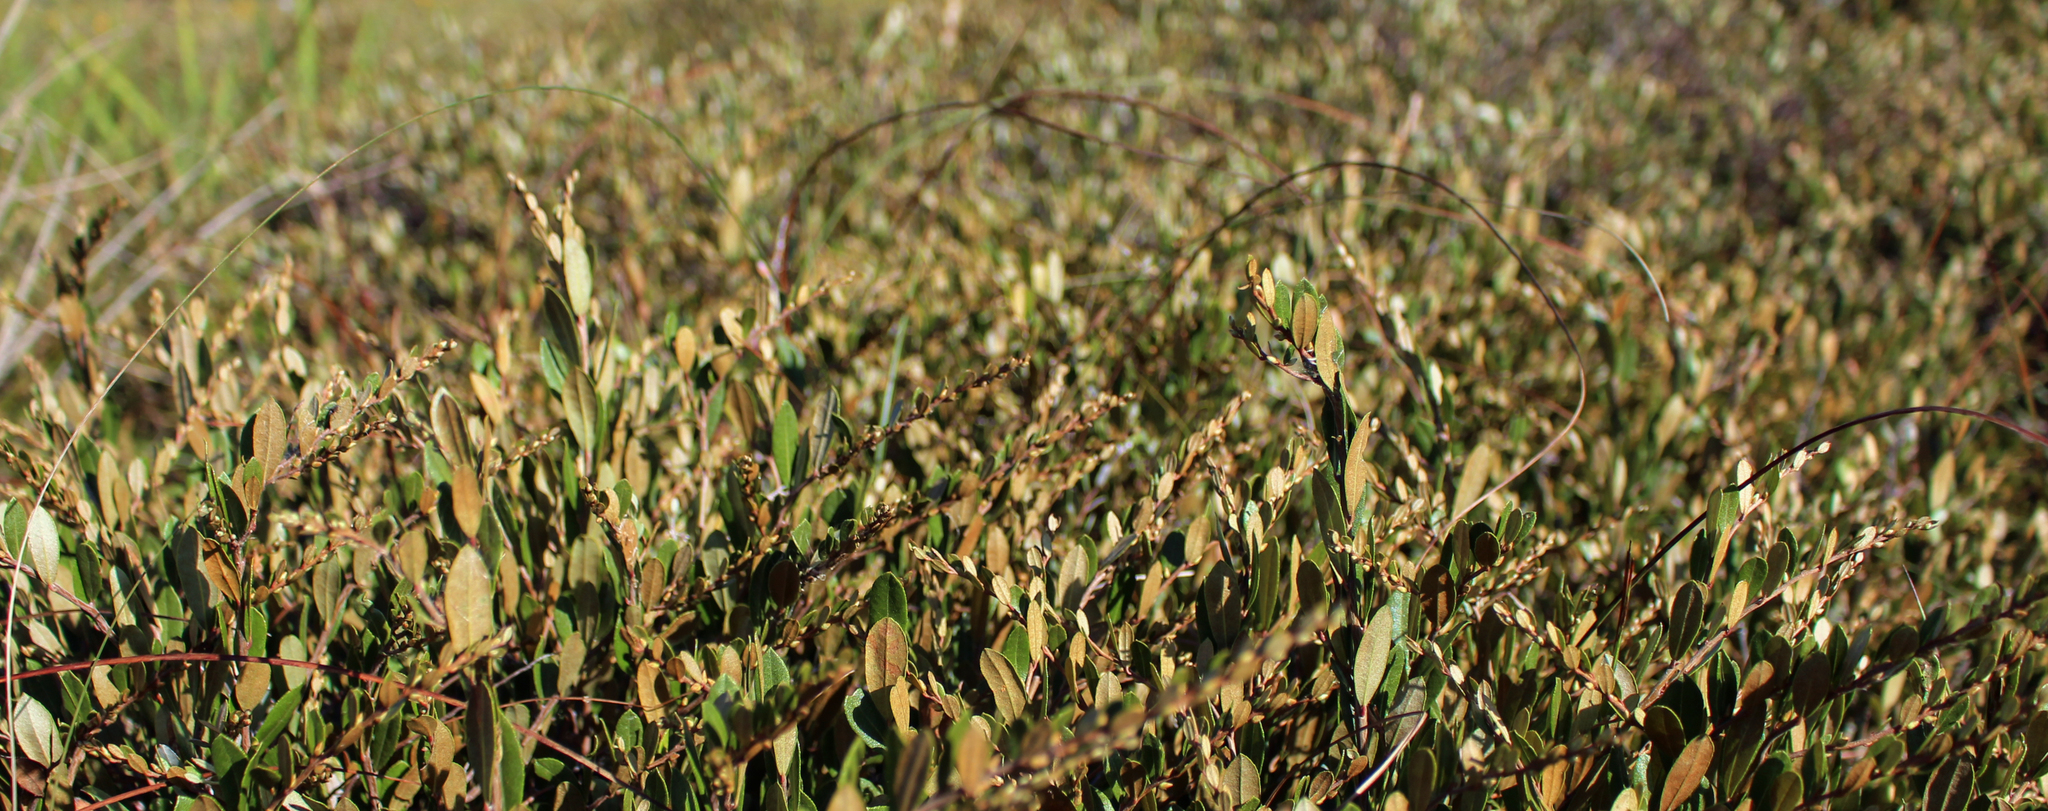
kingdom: Plantae
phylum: Tracheophyta
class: Magnoliopsida
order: Ericales
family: Ericaceae
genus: Chamaedaphne
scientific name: Chamaedaphne calyculata
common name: Leatherleaf
